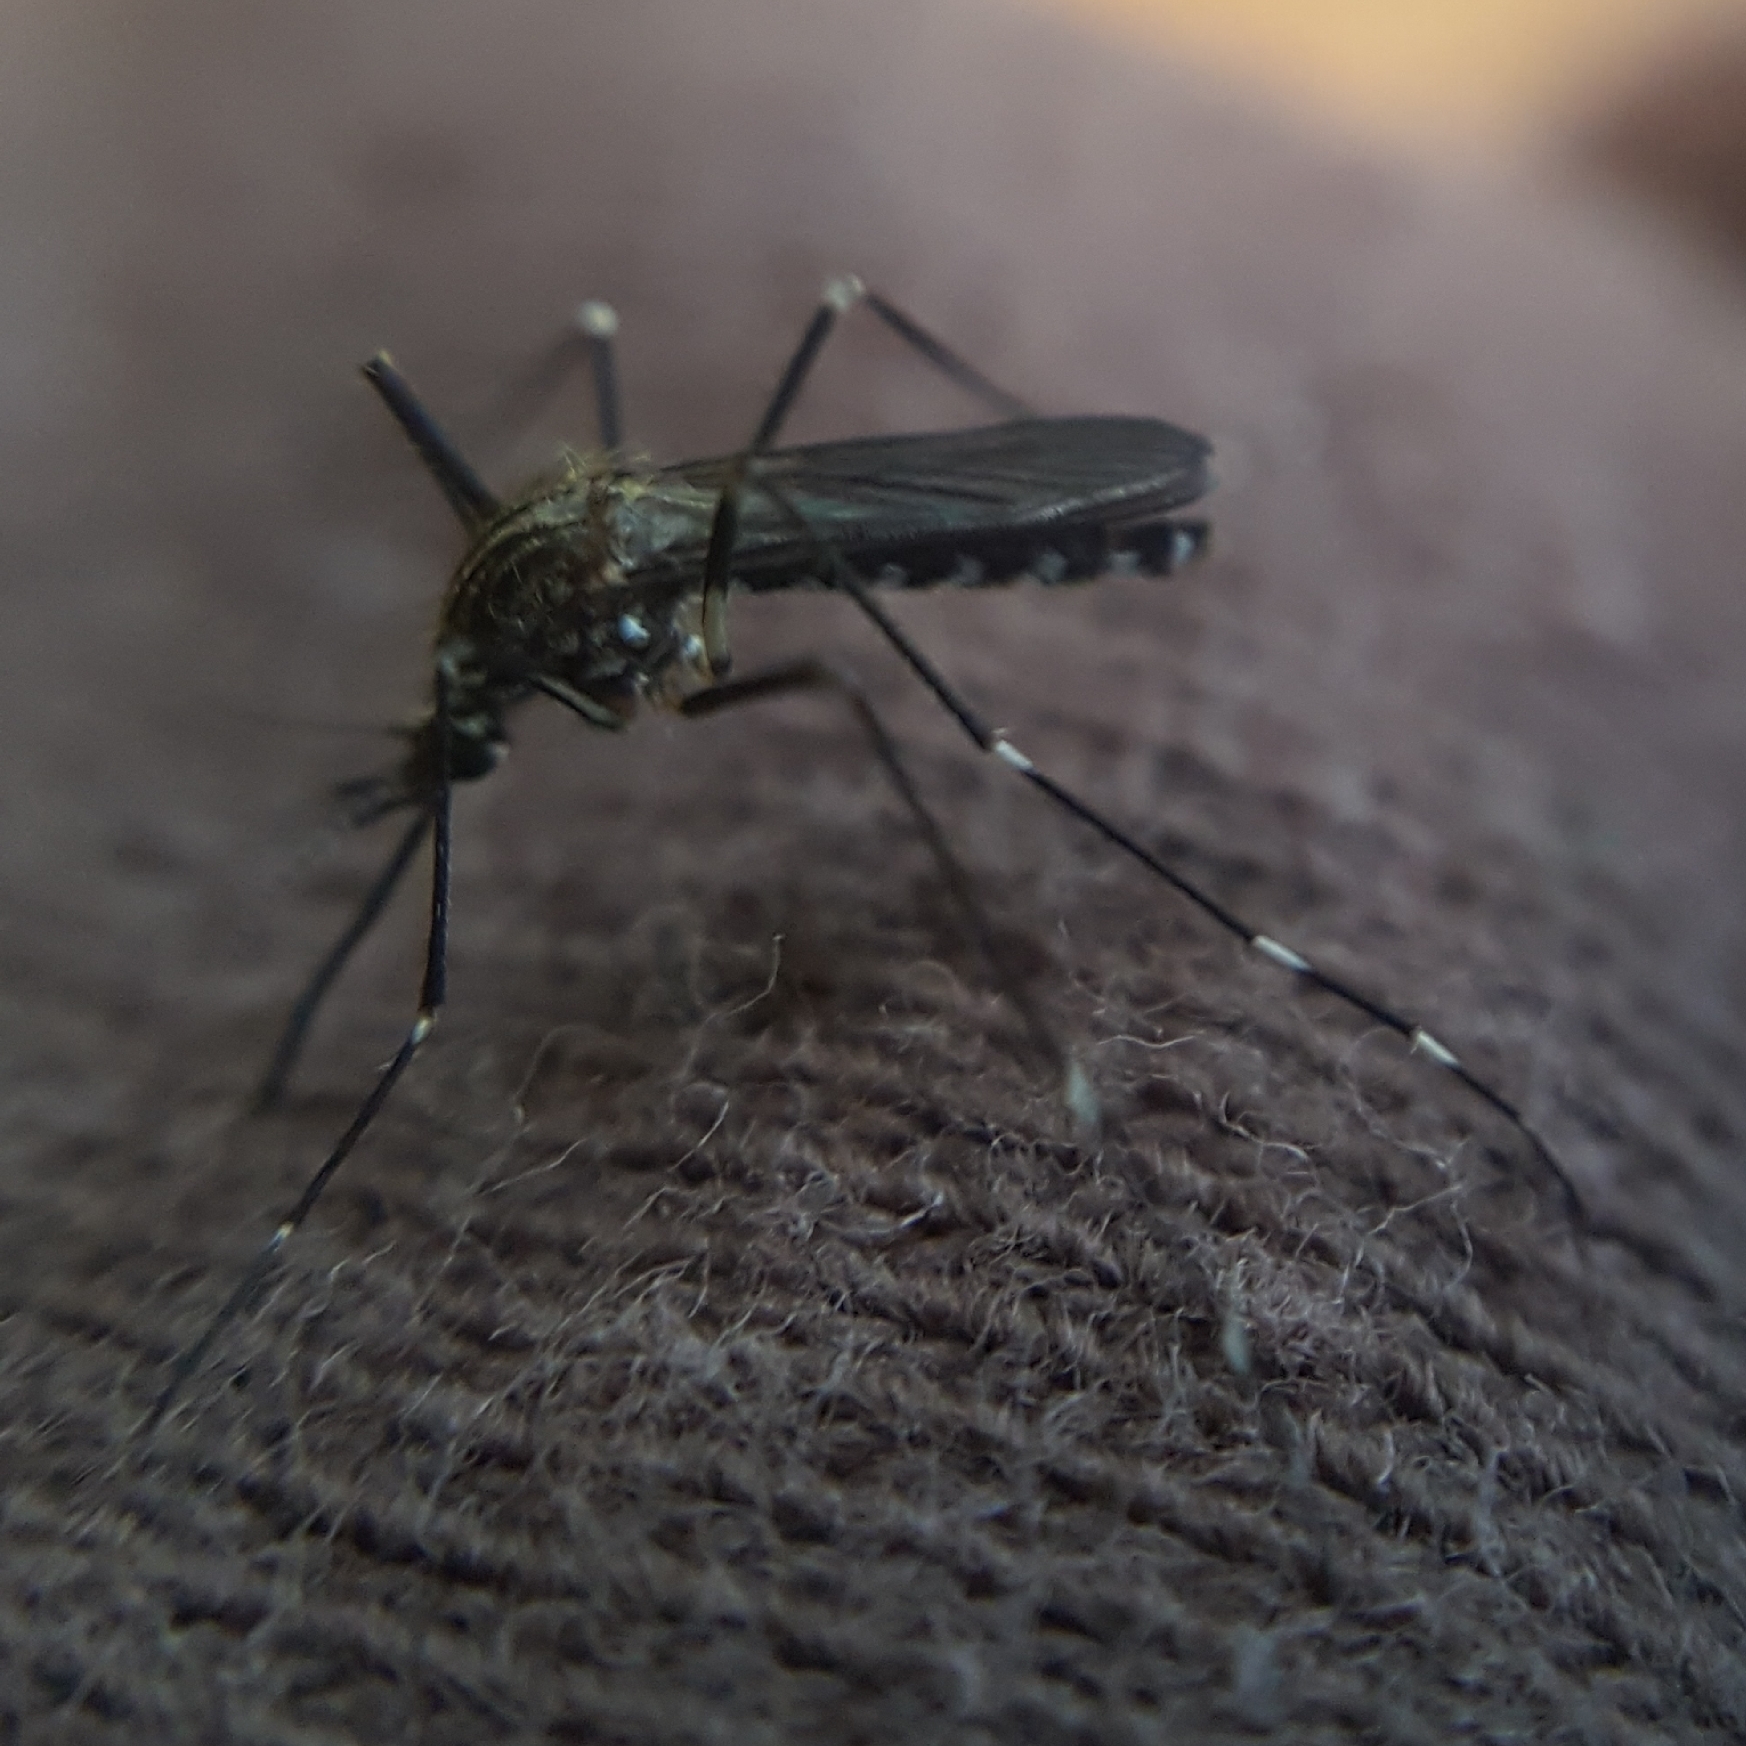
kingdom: Animalia
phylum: Arthropoda
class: Insecta
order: Diptera
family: Culicidae
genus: Aedes
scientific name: Aedes japonicus
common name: Asian bush mosquito
